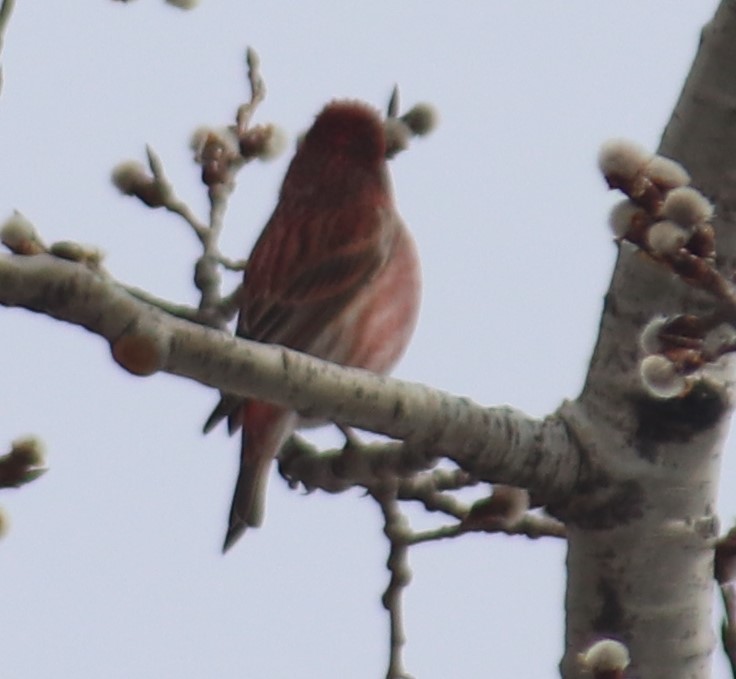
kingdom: Animalia
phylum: Chordata
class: Aves
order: Passeriformes
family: Fringillidae
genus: Haemorhous
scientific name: Haemorhous purpureus
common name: Purple finch
